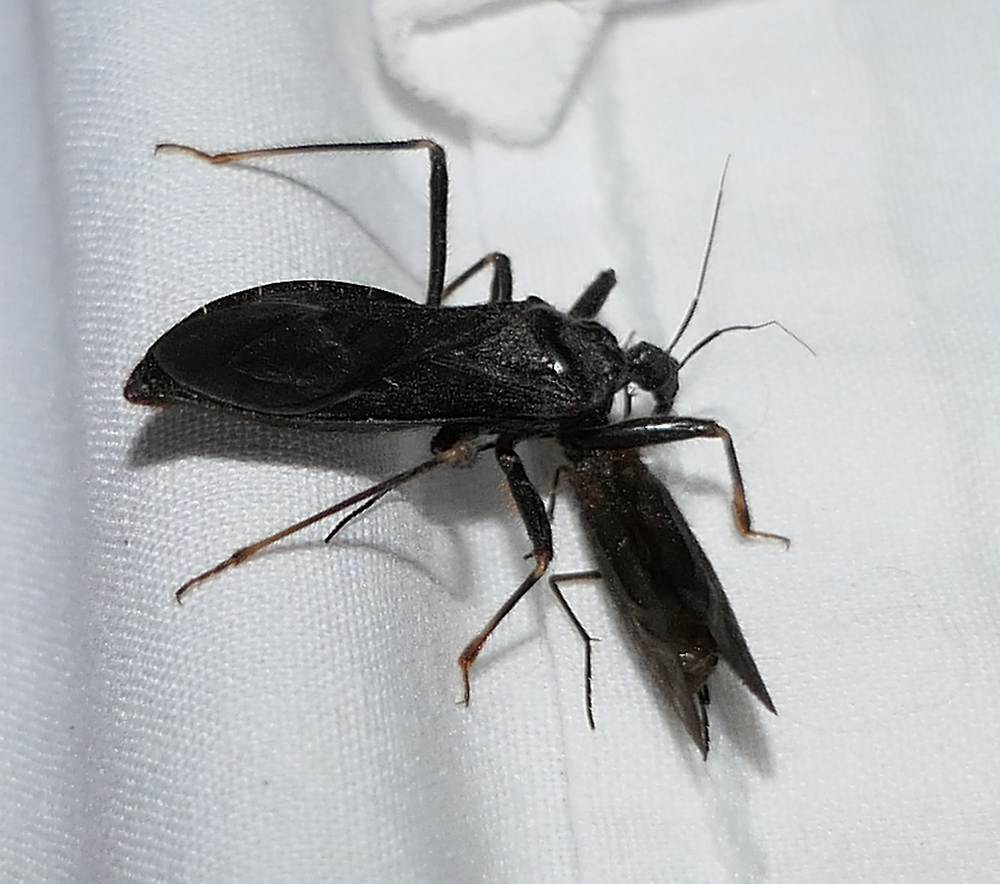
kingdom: Animalia
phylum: Arthropoda
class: Insecta
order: Hemiptera
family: Reduviidae
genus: Reduvius
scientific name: Reduvius personatus
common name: Masked hunter
